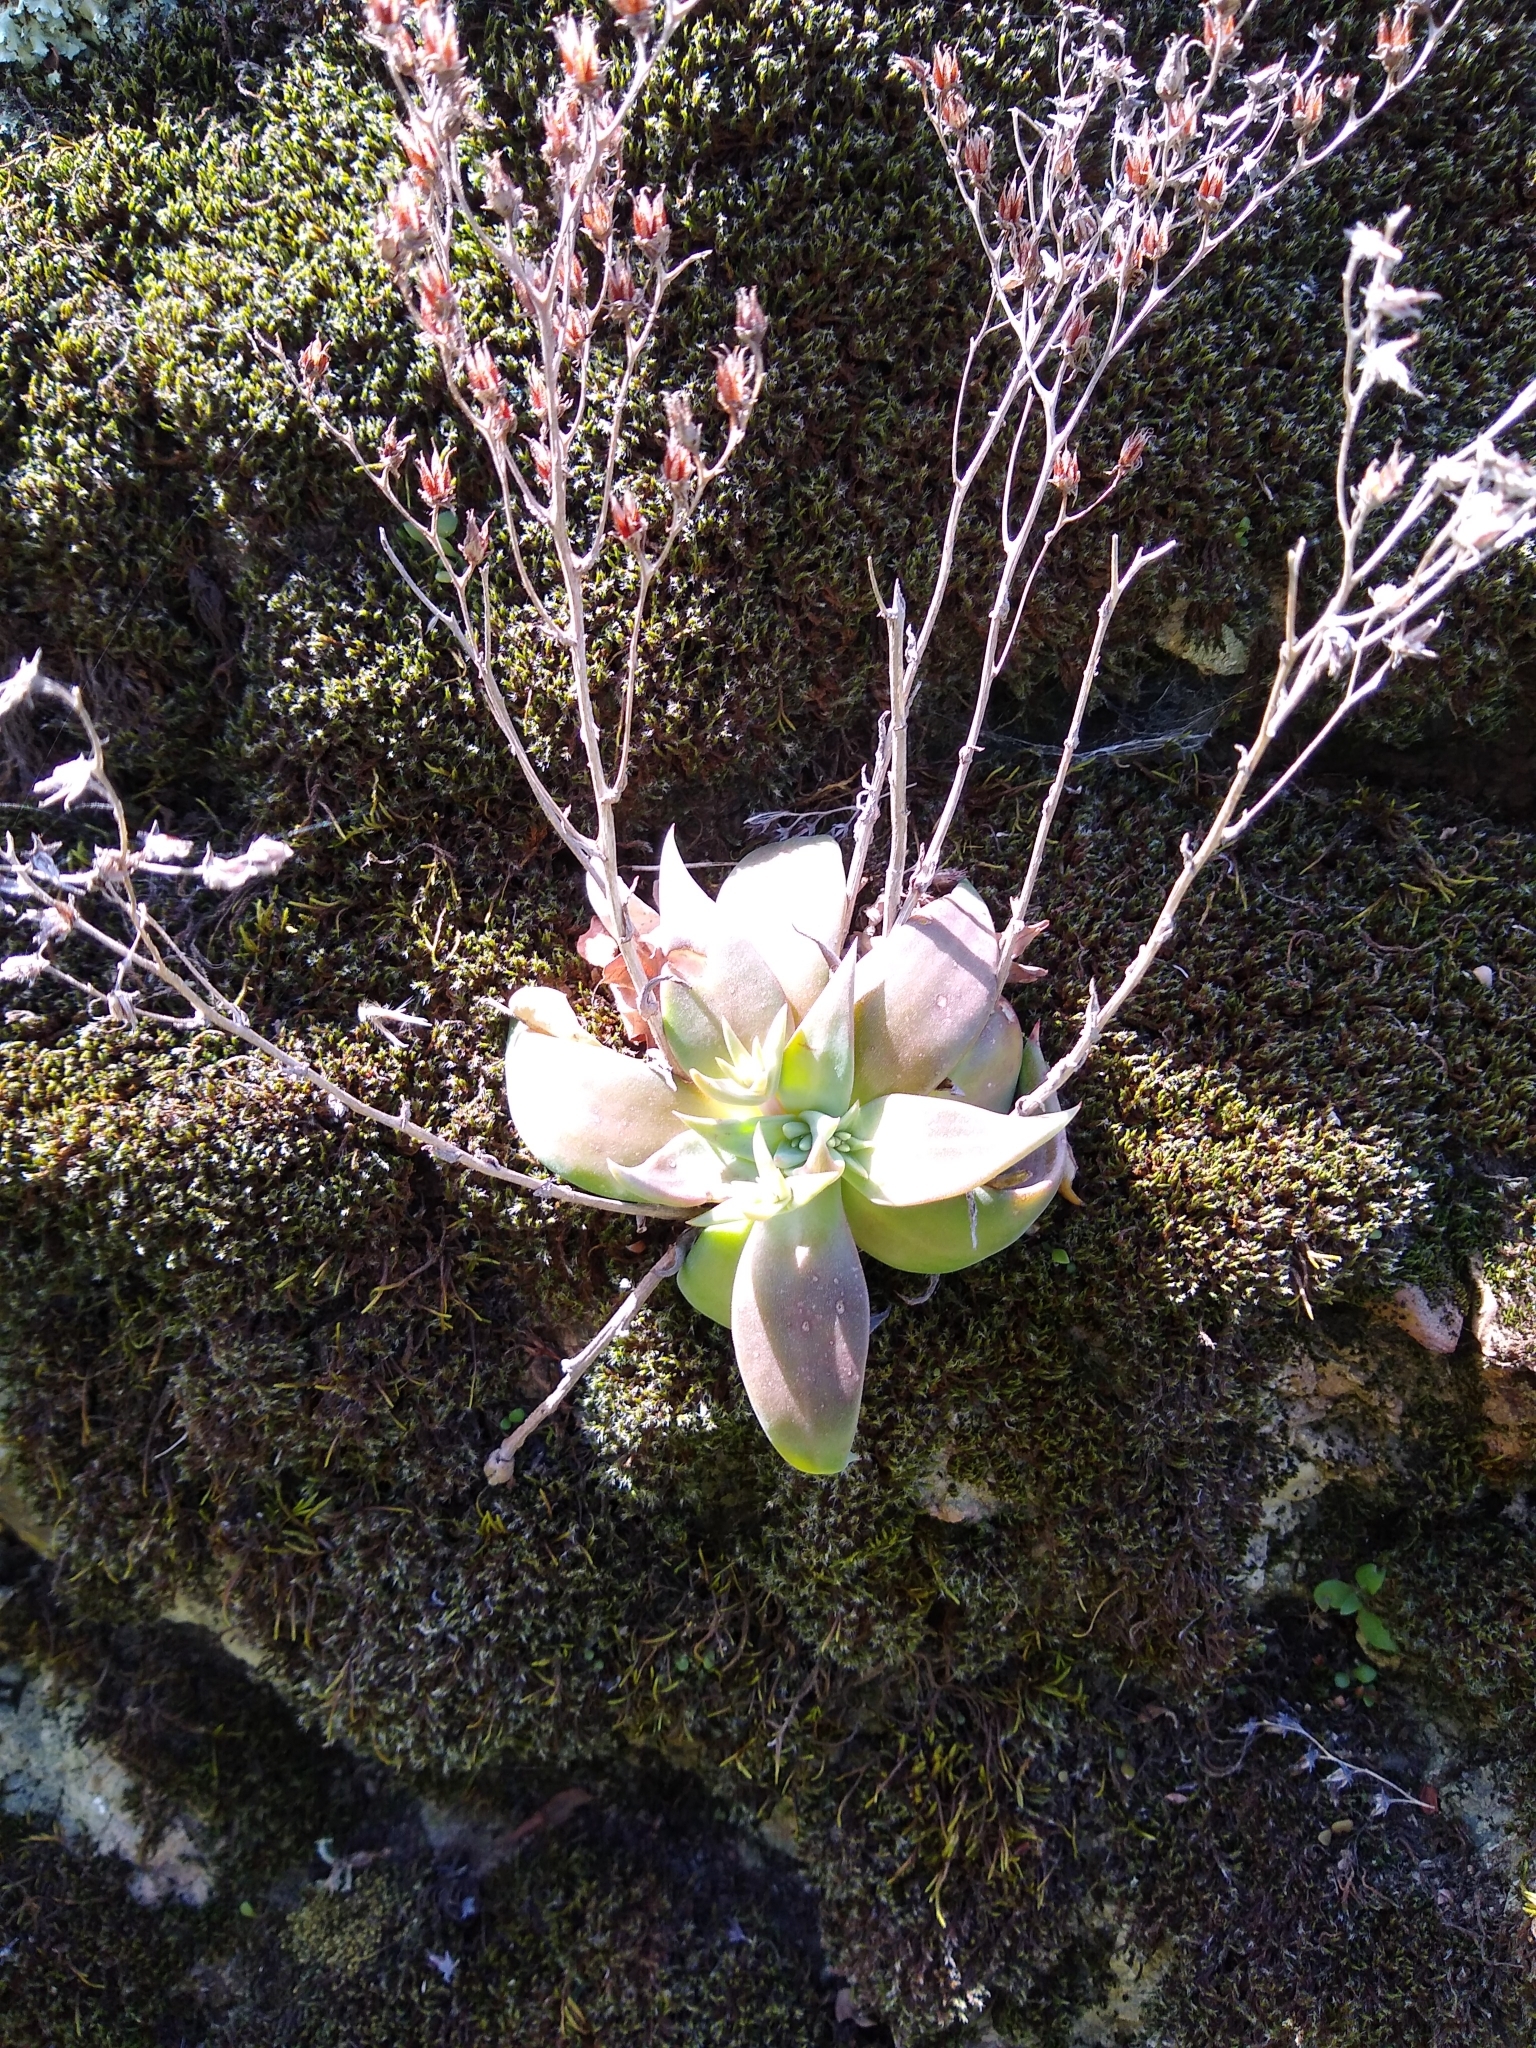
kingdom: Plantae
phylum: Tracheophyta
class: Magnoliopsida
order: Saxifragales
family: Crassulaceae
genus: Dudleya
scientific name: Dudleya cymosa
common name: Canyon dudleya
